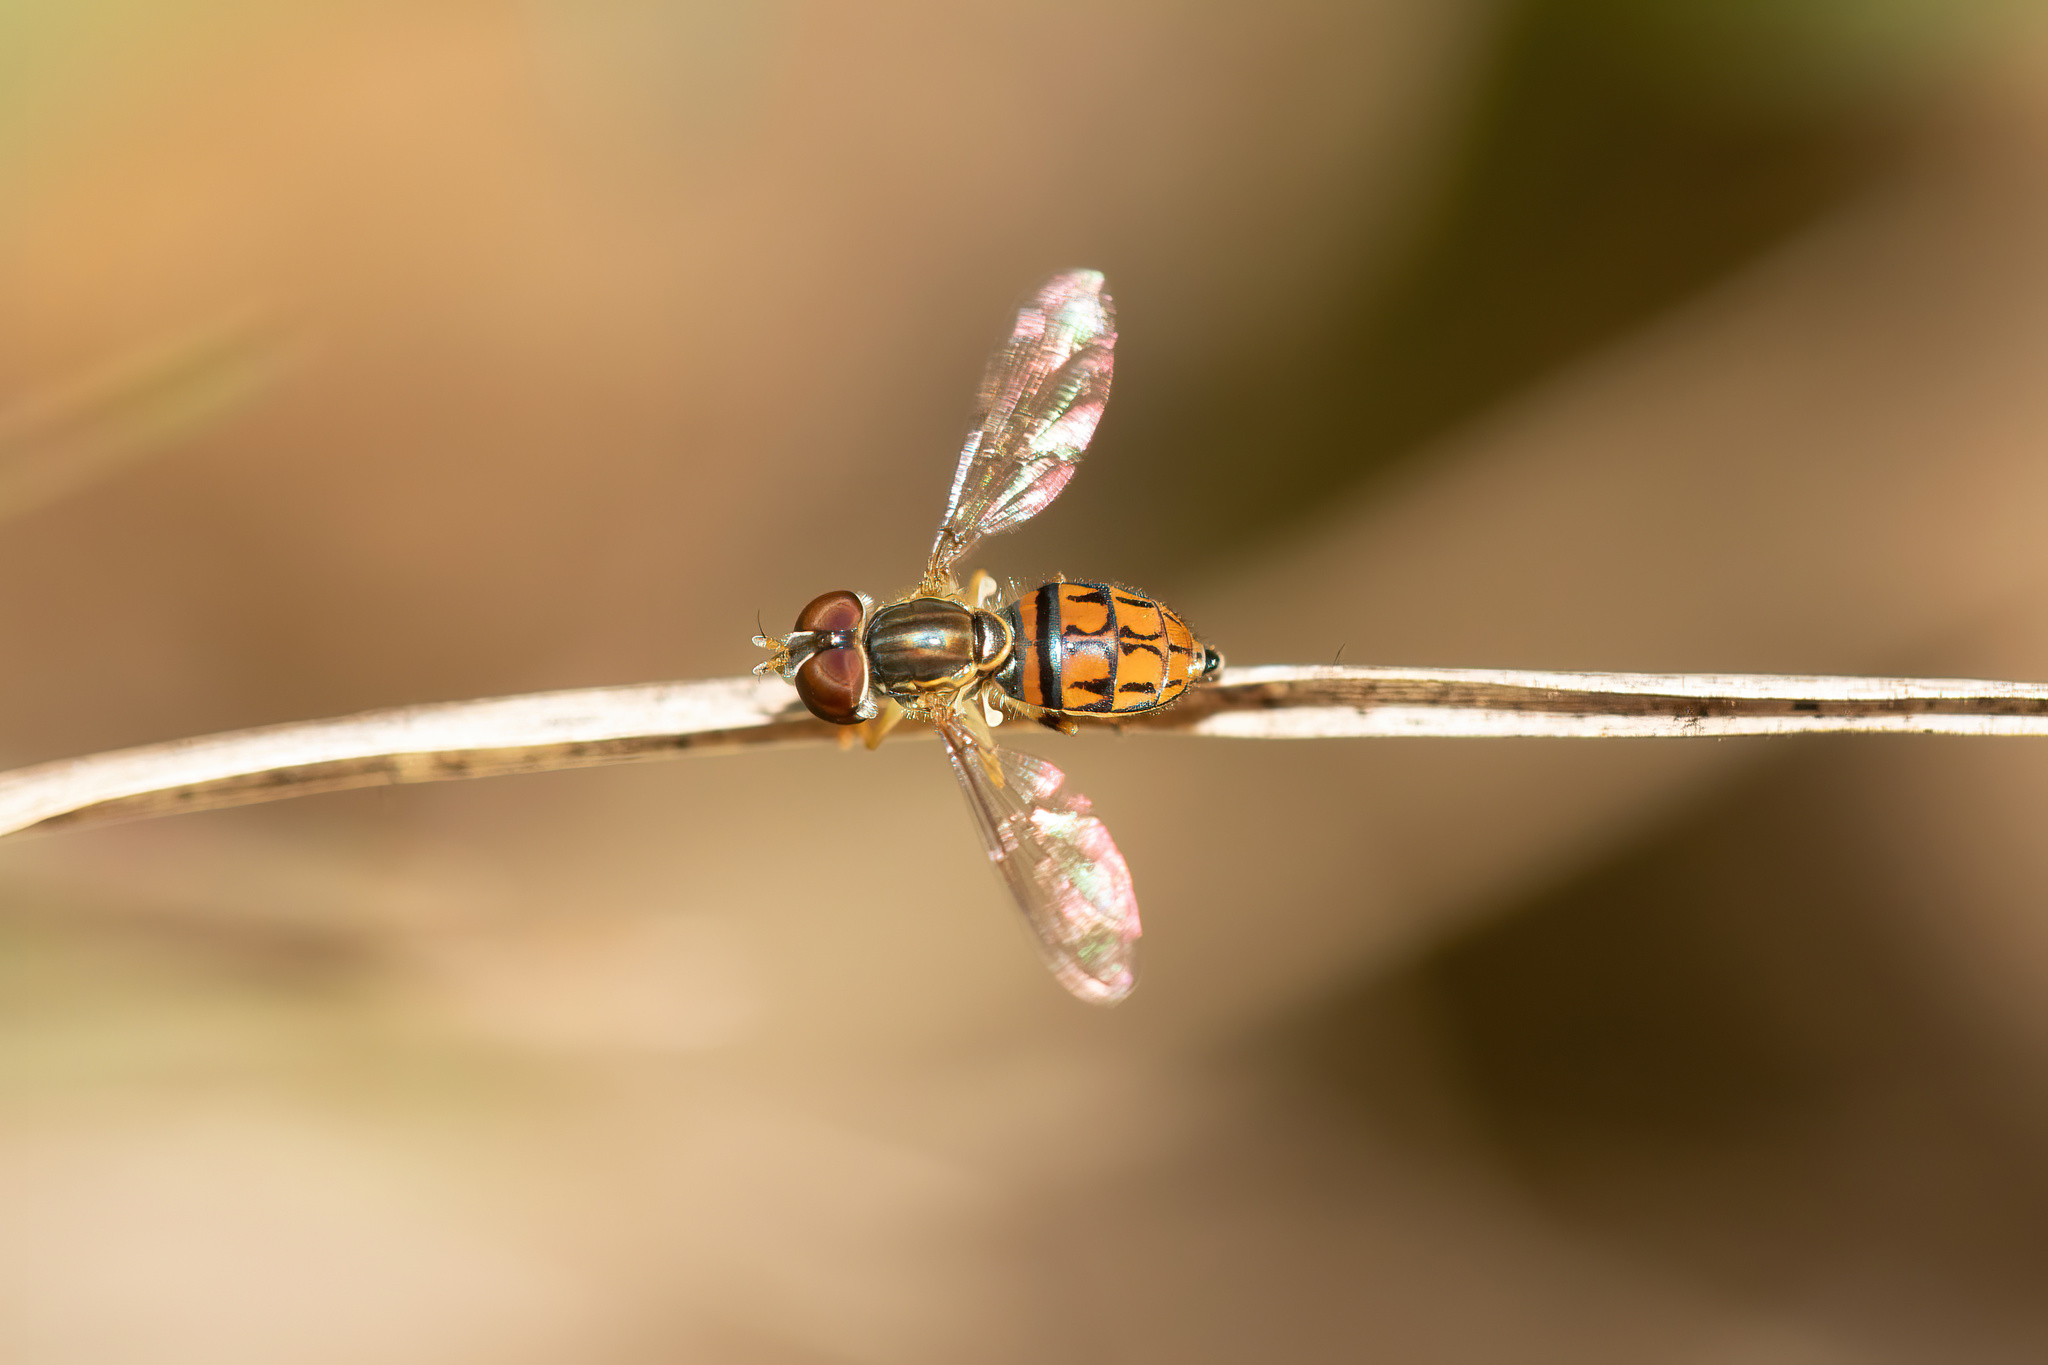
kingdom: Animalia
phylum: Arthropoda
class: Insecta
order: Diptera
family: Syrphidae
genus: Toxomerus
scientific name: Toxomerus boscii
